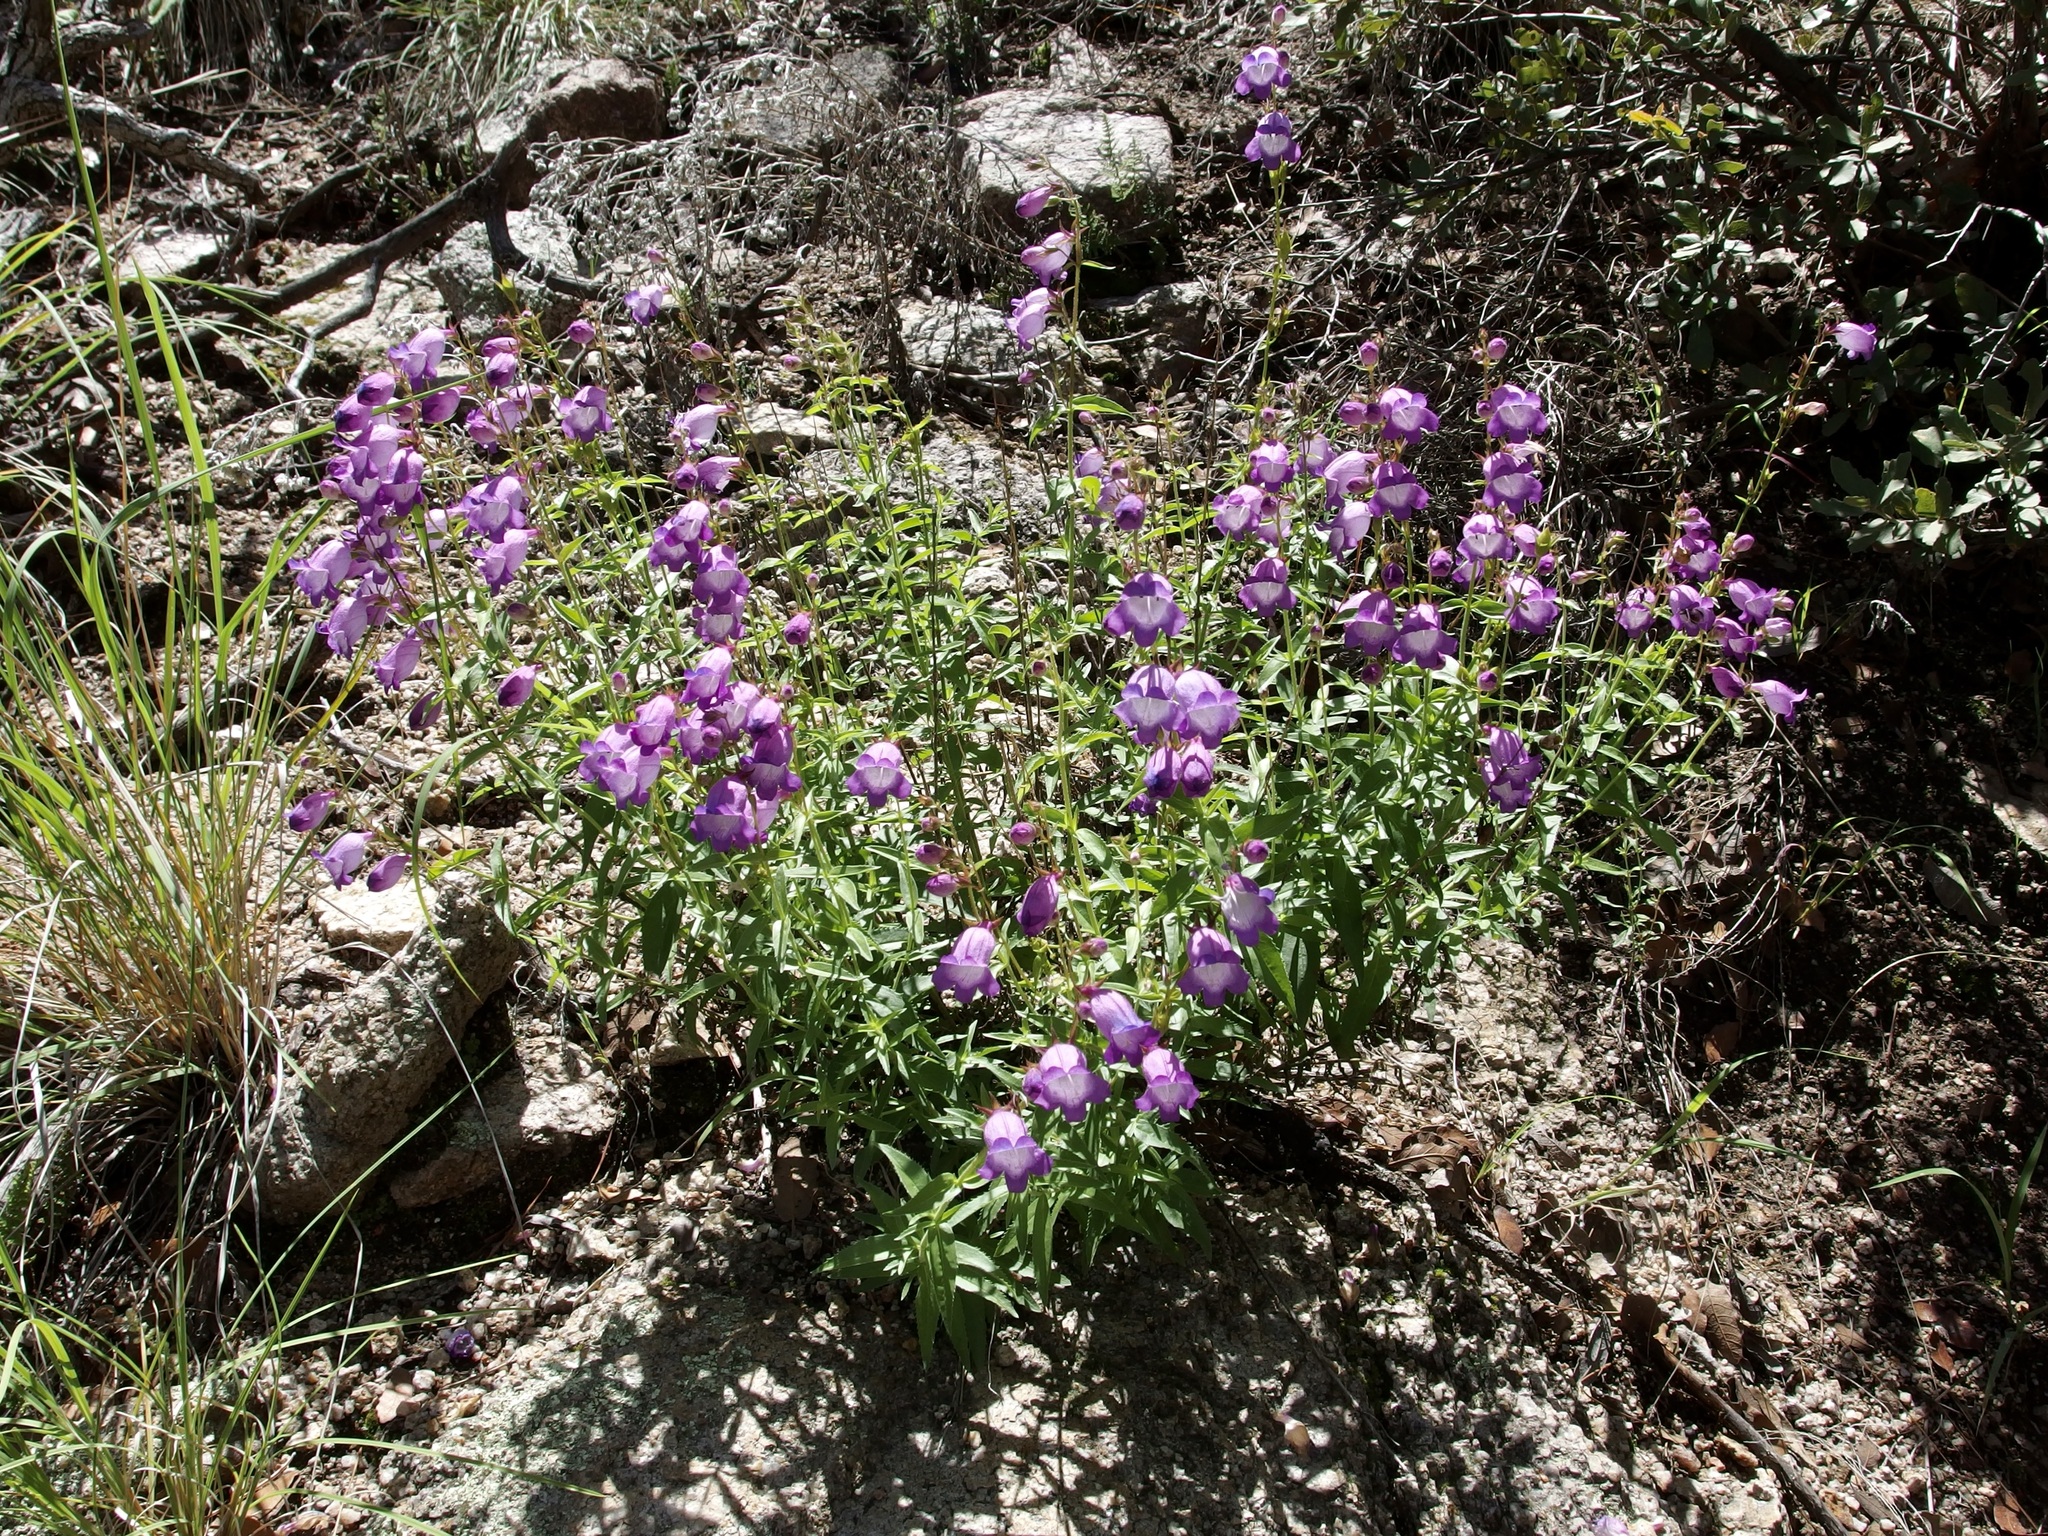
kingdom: Plantae
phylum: Tracheophyta
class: Magnoliopsida
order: Lamiales
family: Plantaginaceae
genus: Penstemon
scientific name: Penstemon campanulatus
